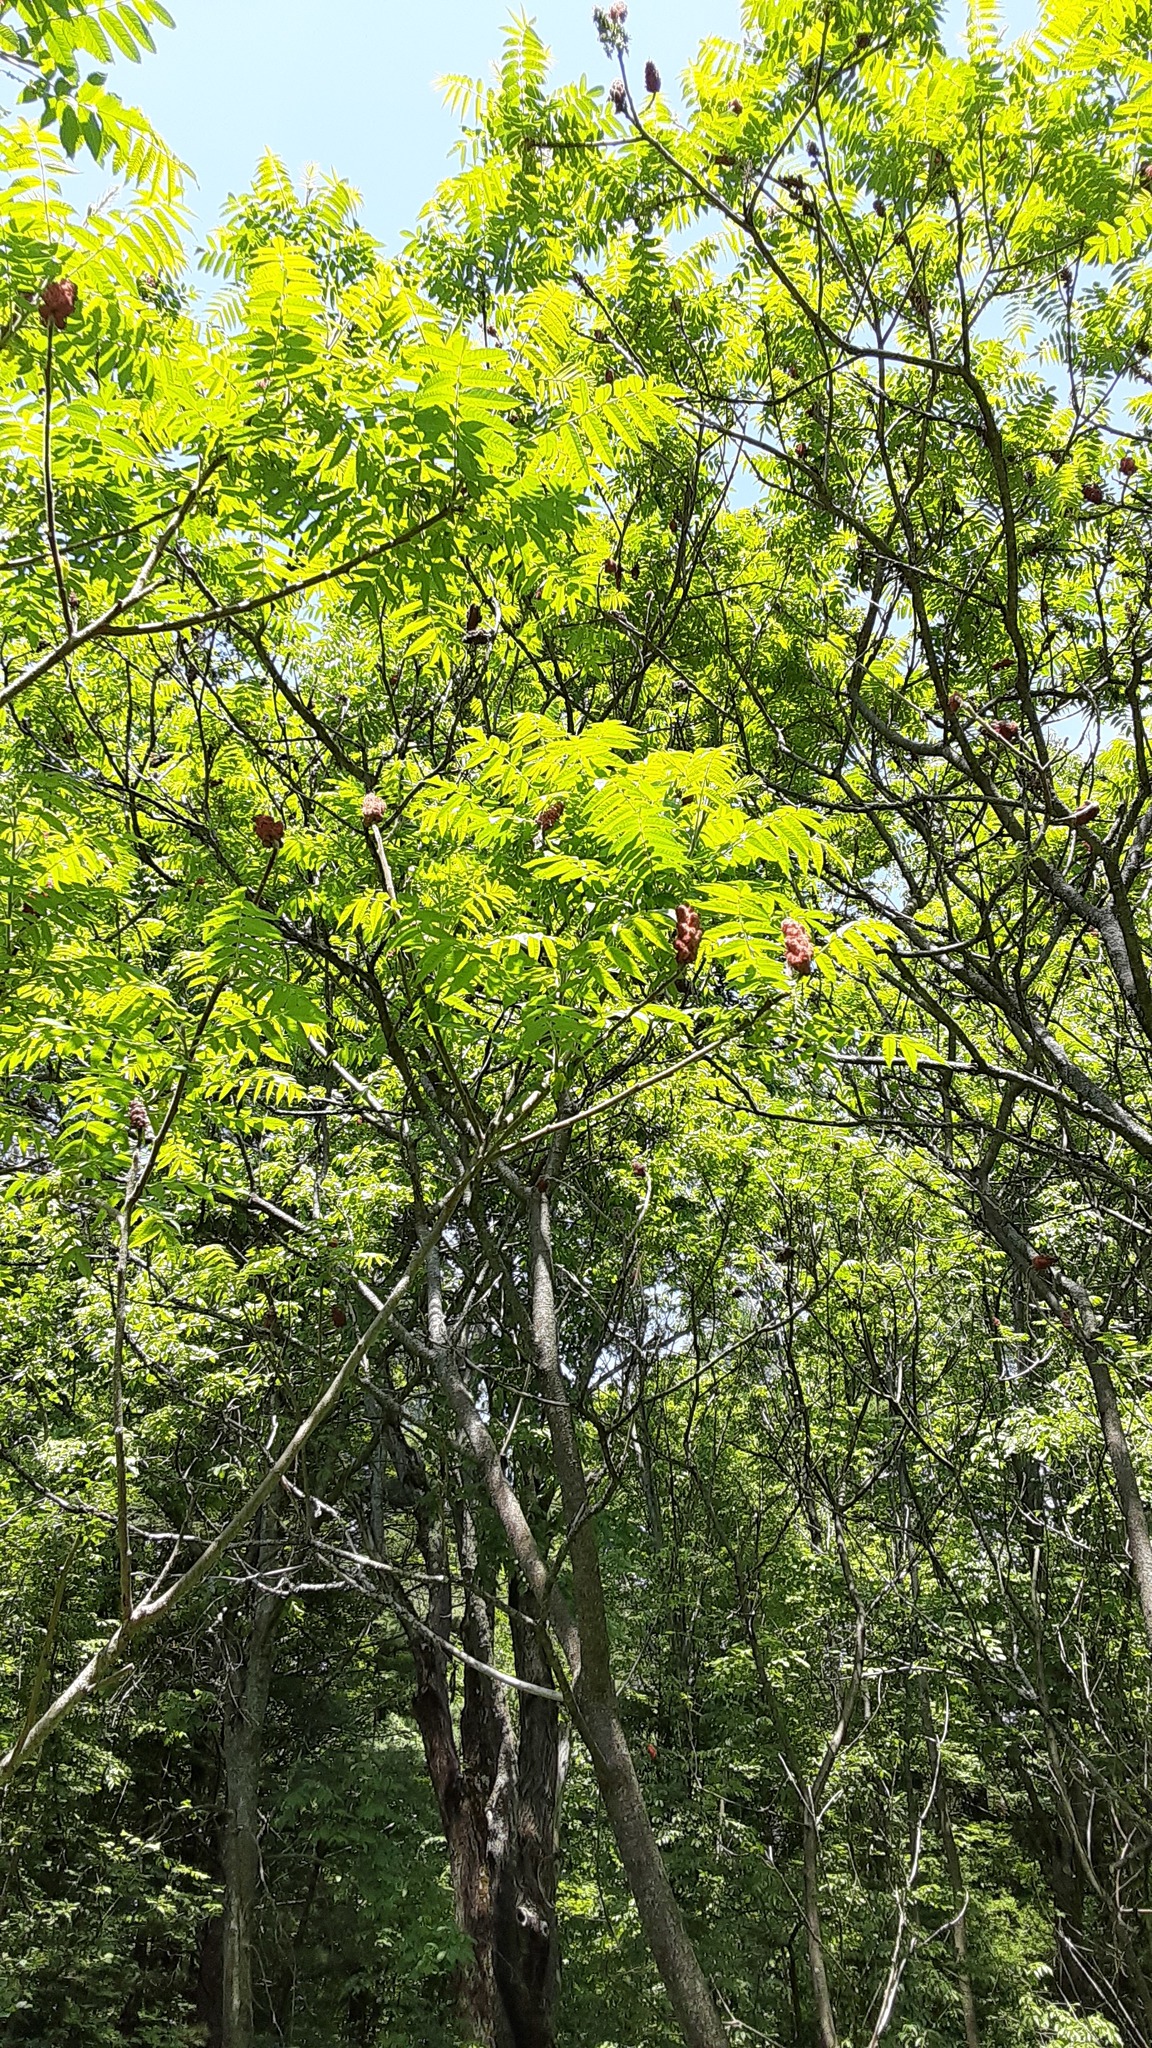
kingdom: Plantae
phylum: Tracheophyta
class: Magnoliopsida
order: Sapindales
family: Anacardiaceae
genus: Rhus
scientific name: Rhus typhina
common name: Staghorn sumac
